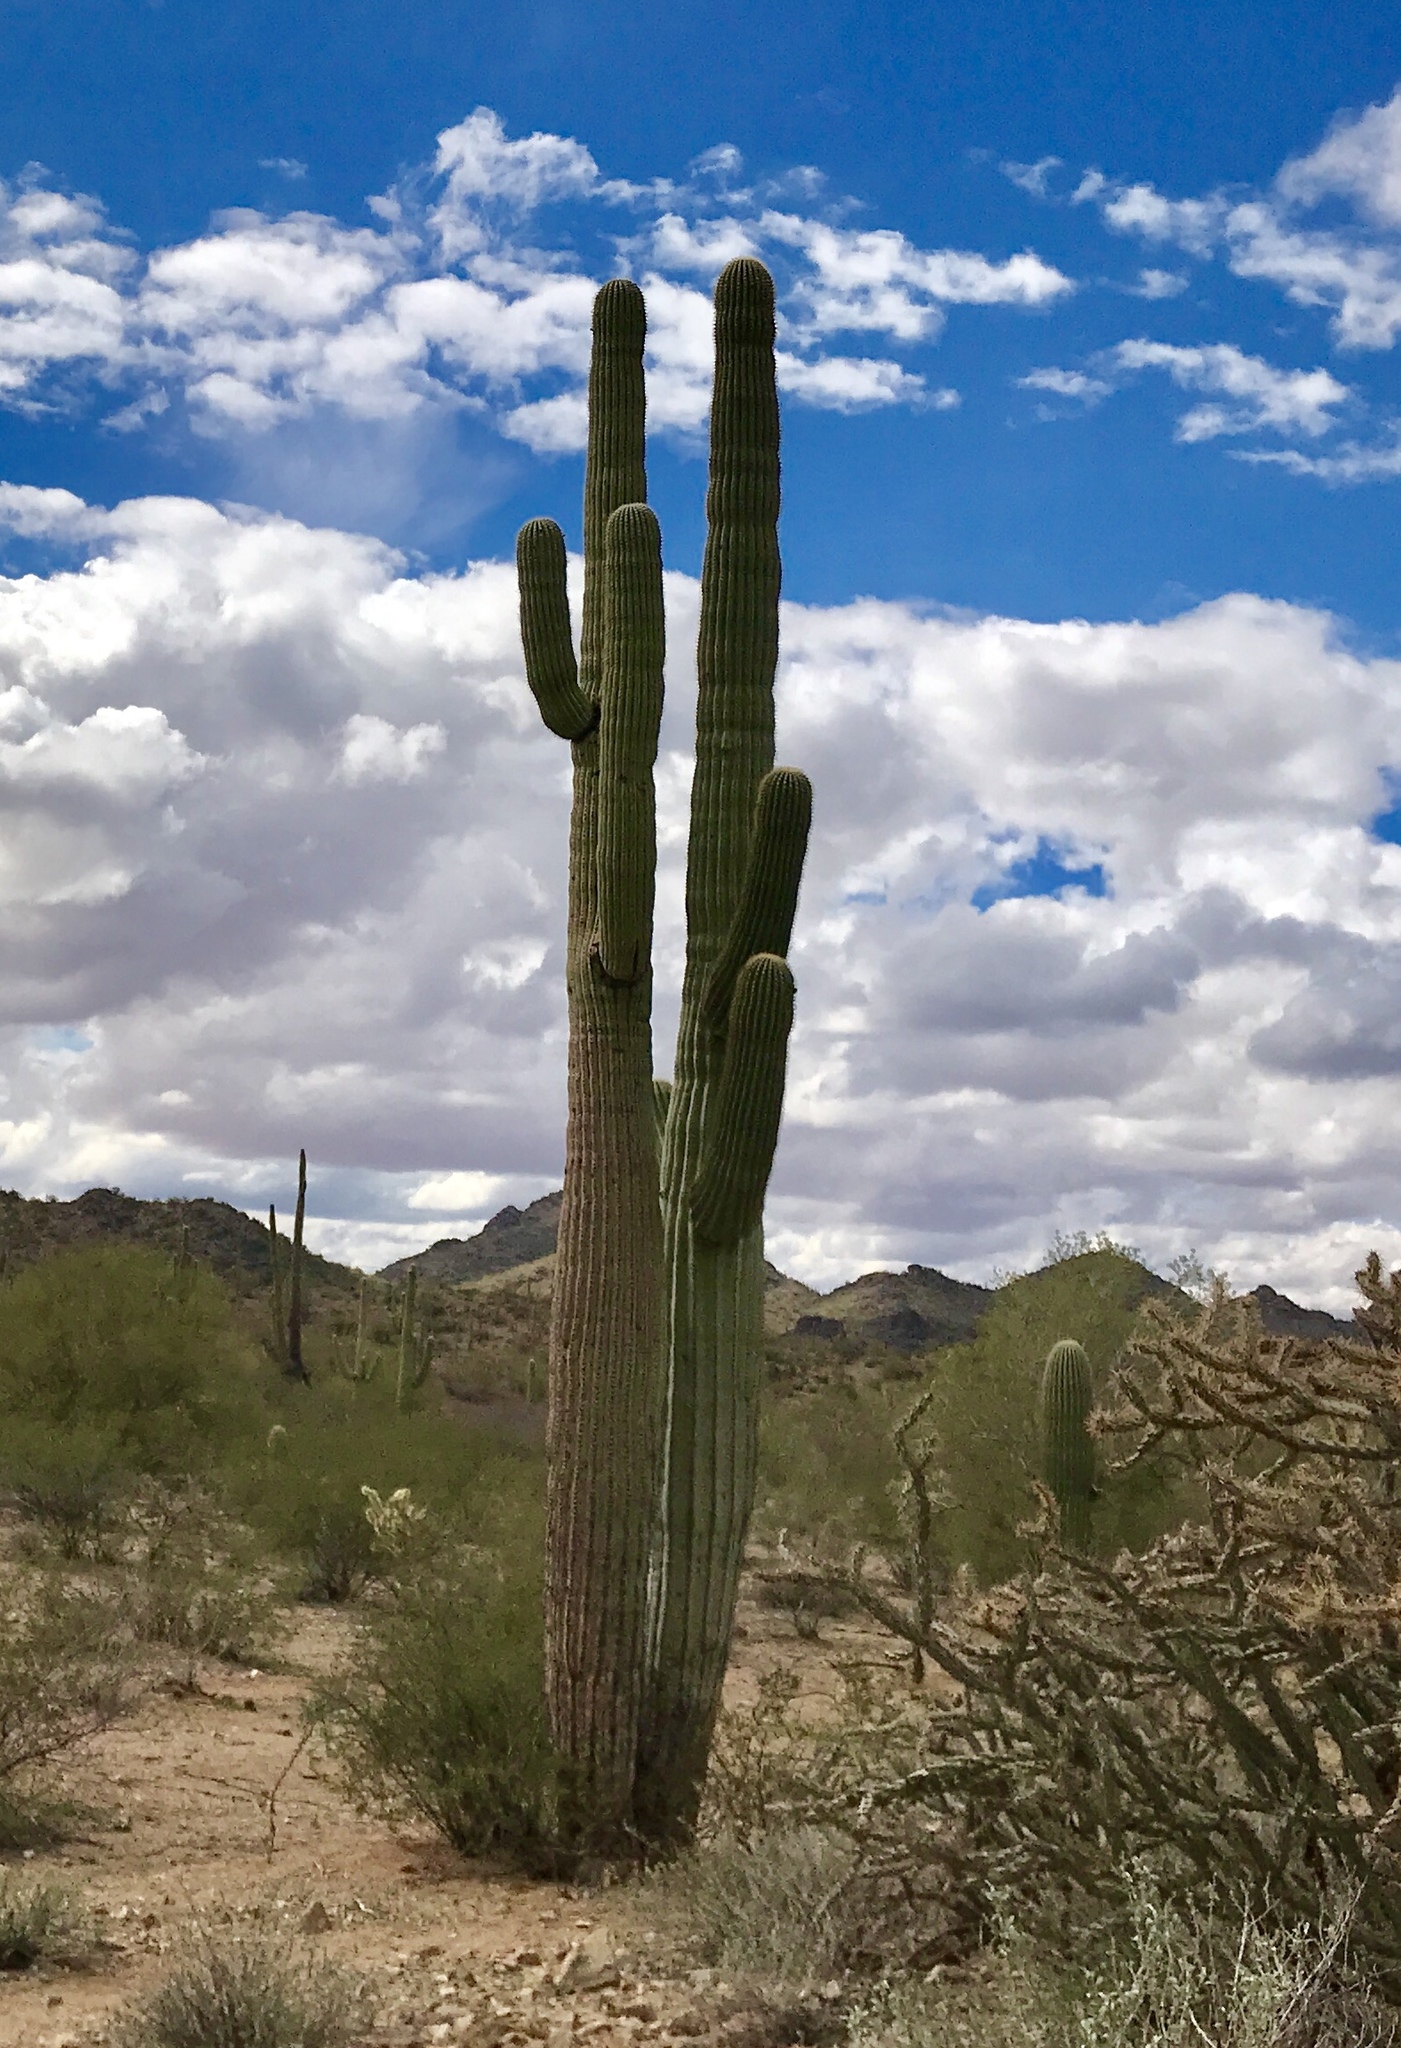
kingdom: Plantae
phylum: Tracheophyta
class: Magnoliopsida
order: Caryophyllales
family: Cactaceae
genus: Carnegiea
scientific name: Carnegiea gigantea
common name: Saguaro
